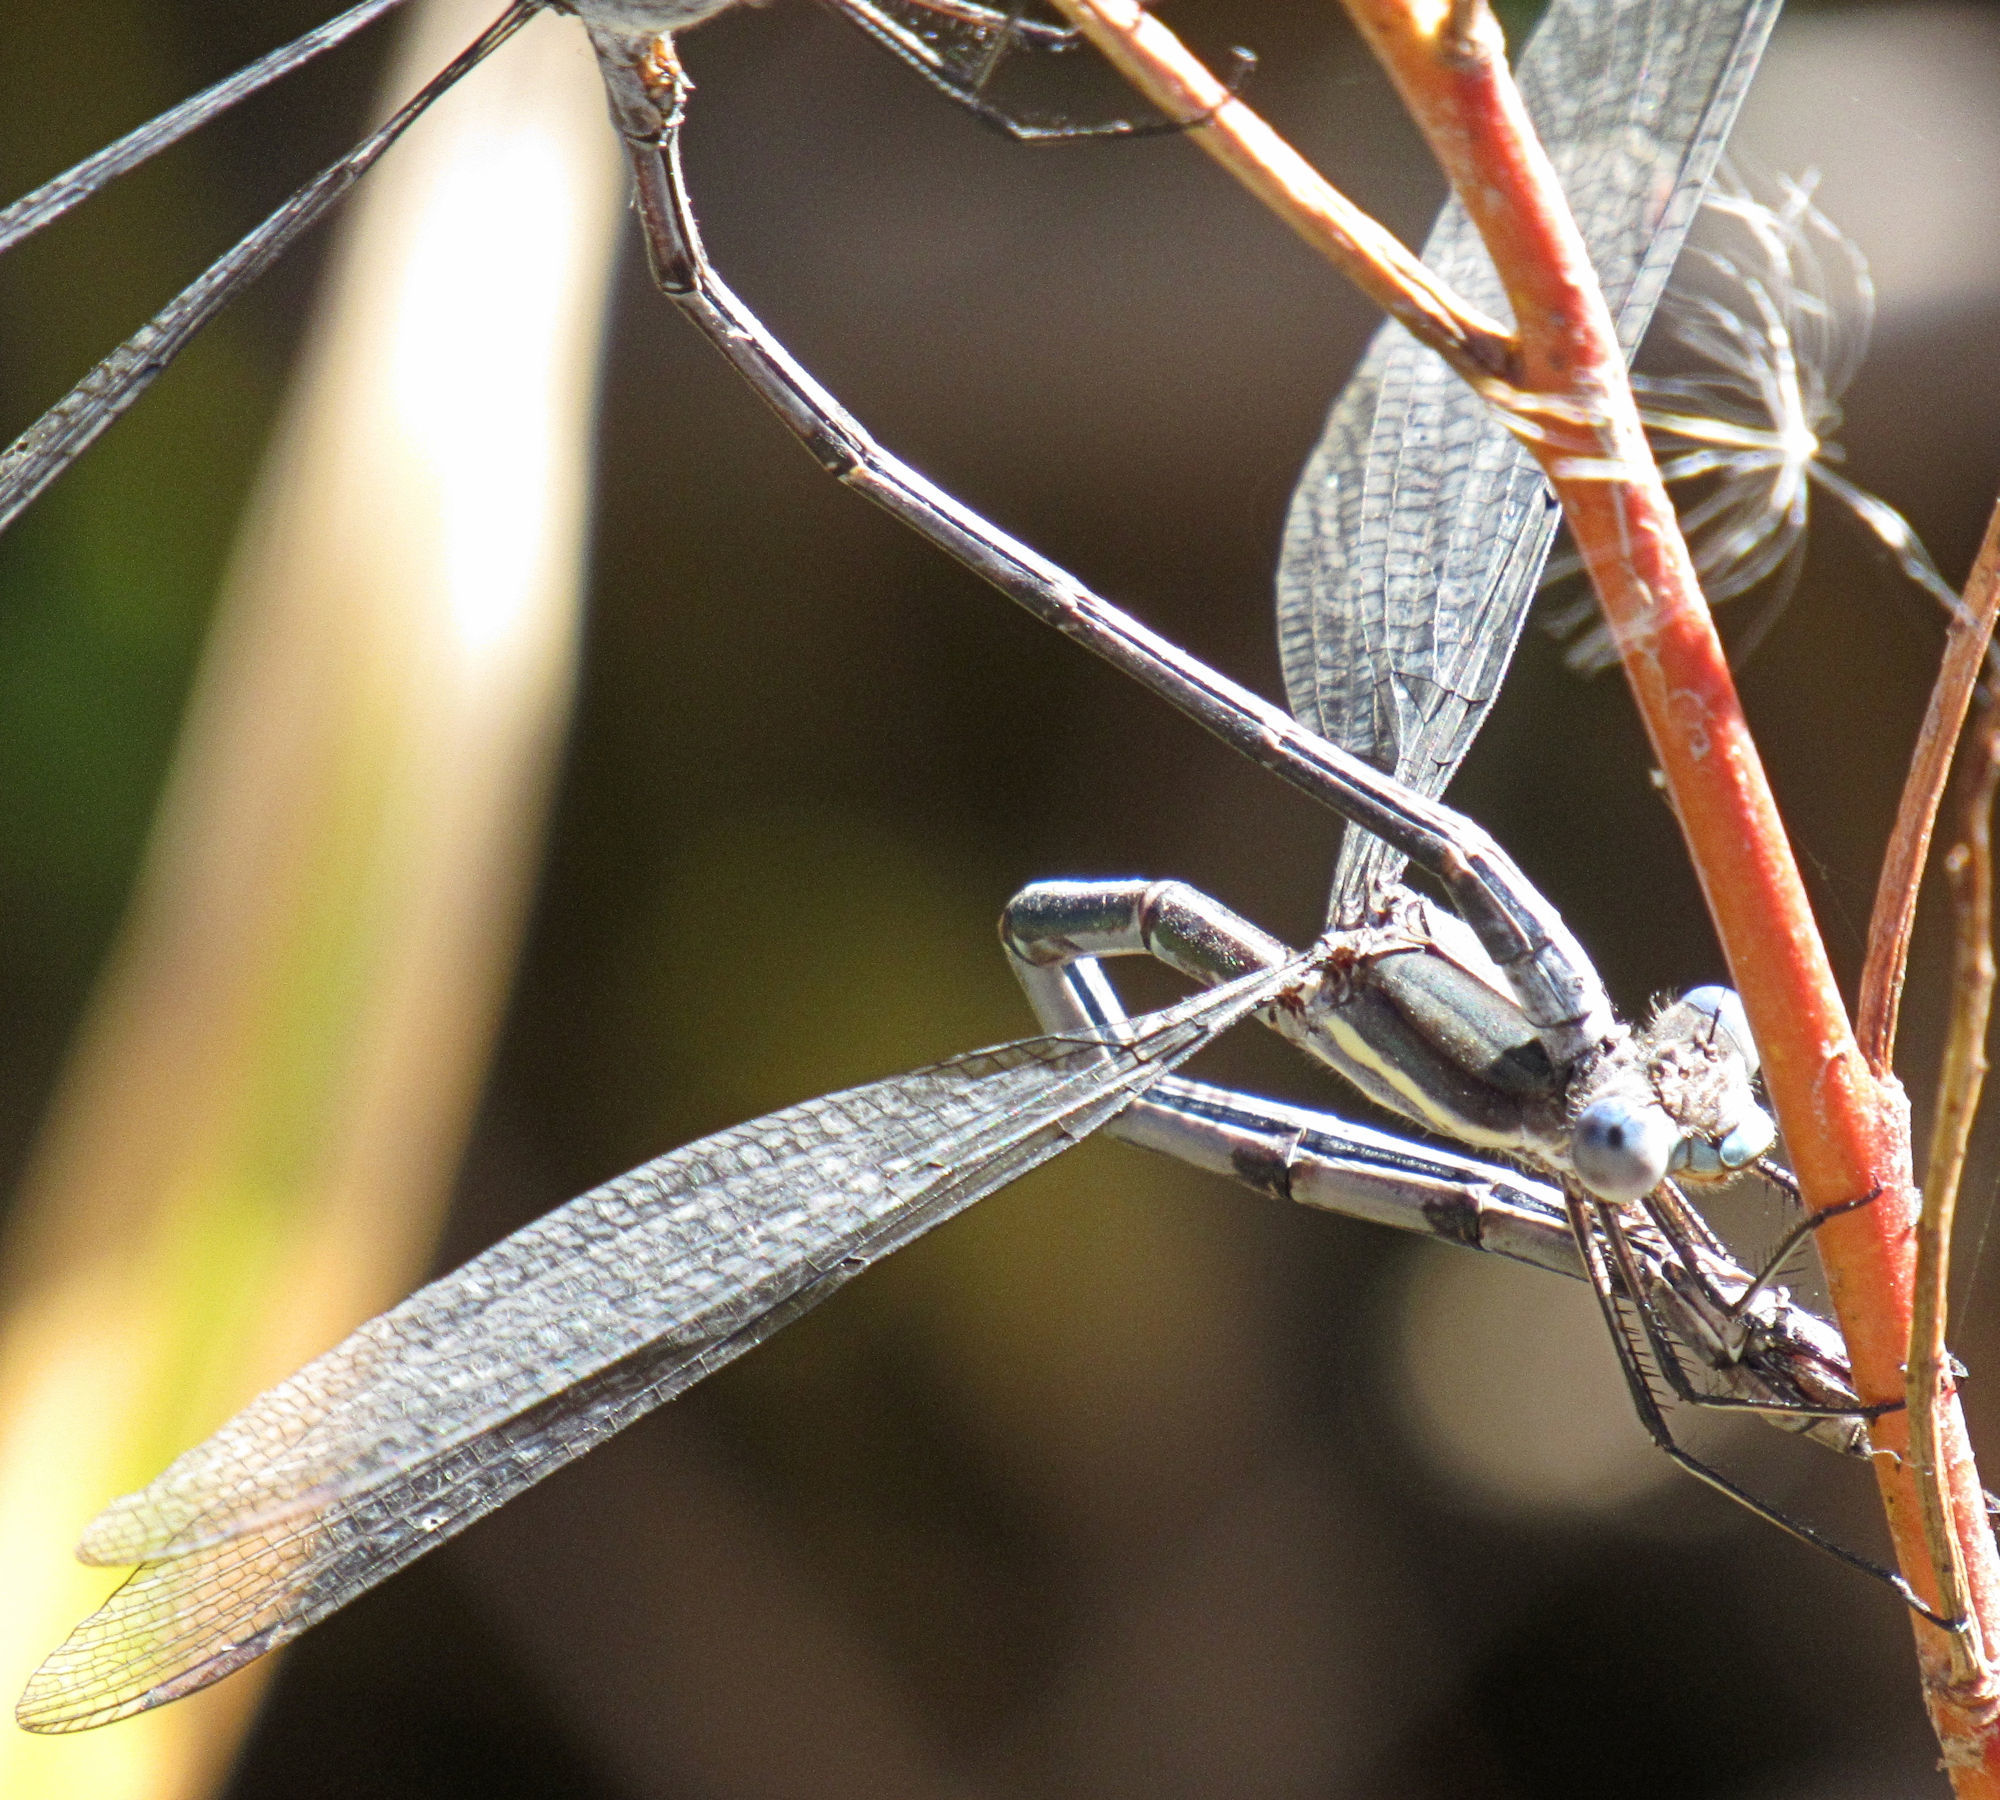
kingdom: Animalia
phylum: Arthropoda
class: Insecta
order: Odonata
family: Lestidae
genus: Archilestes
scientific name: Archilestes grandis
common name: Great spreadwing
